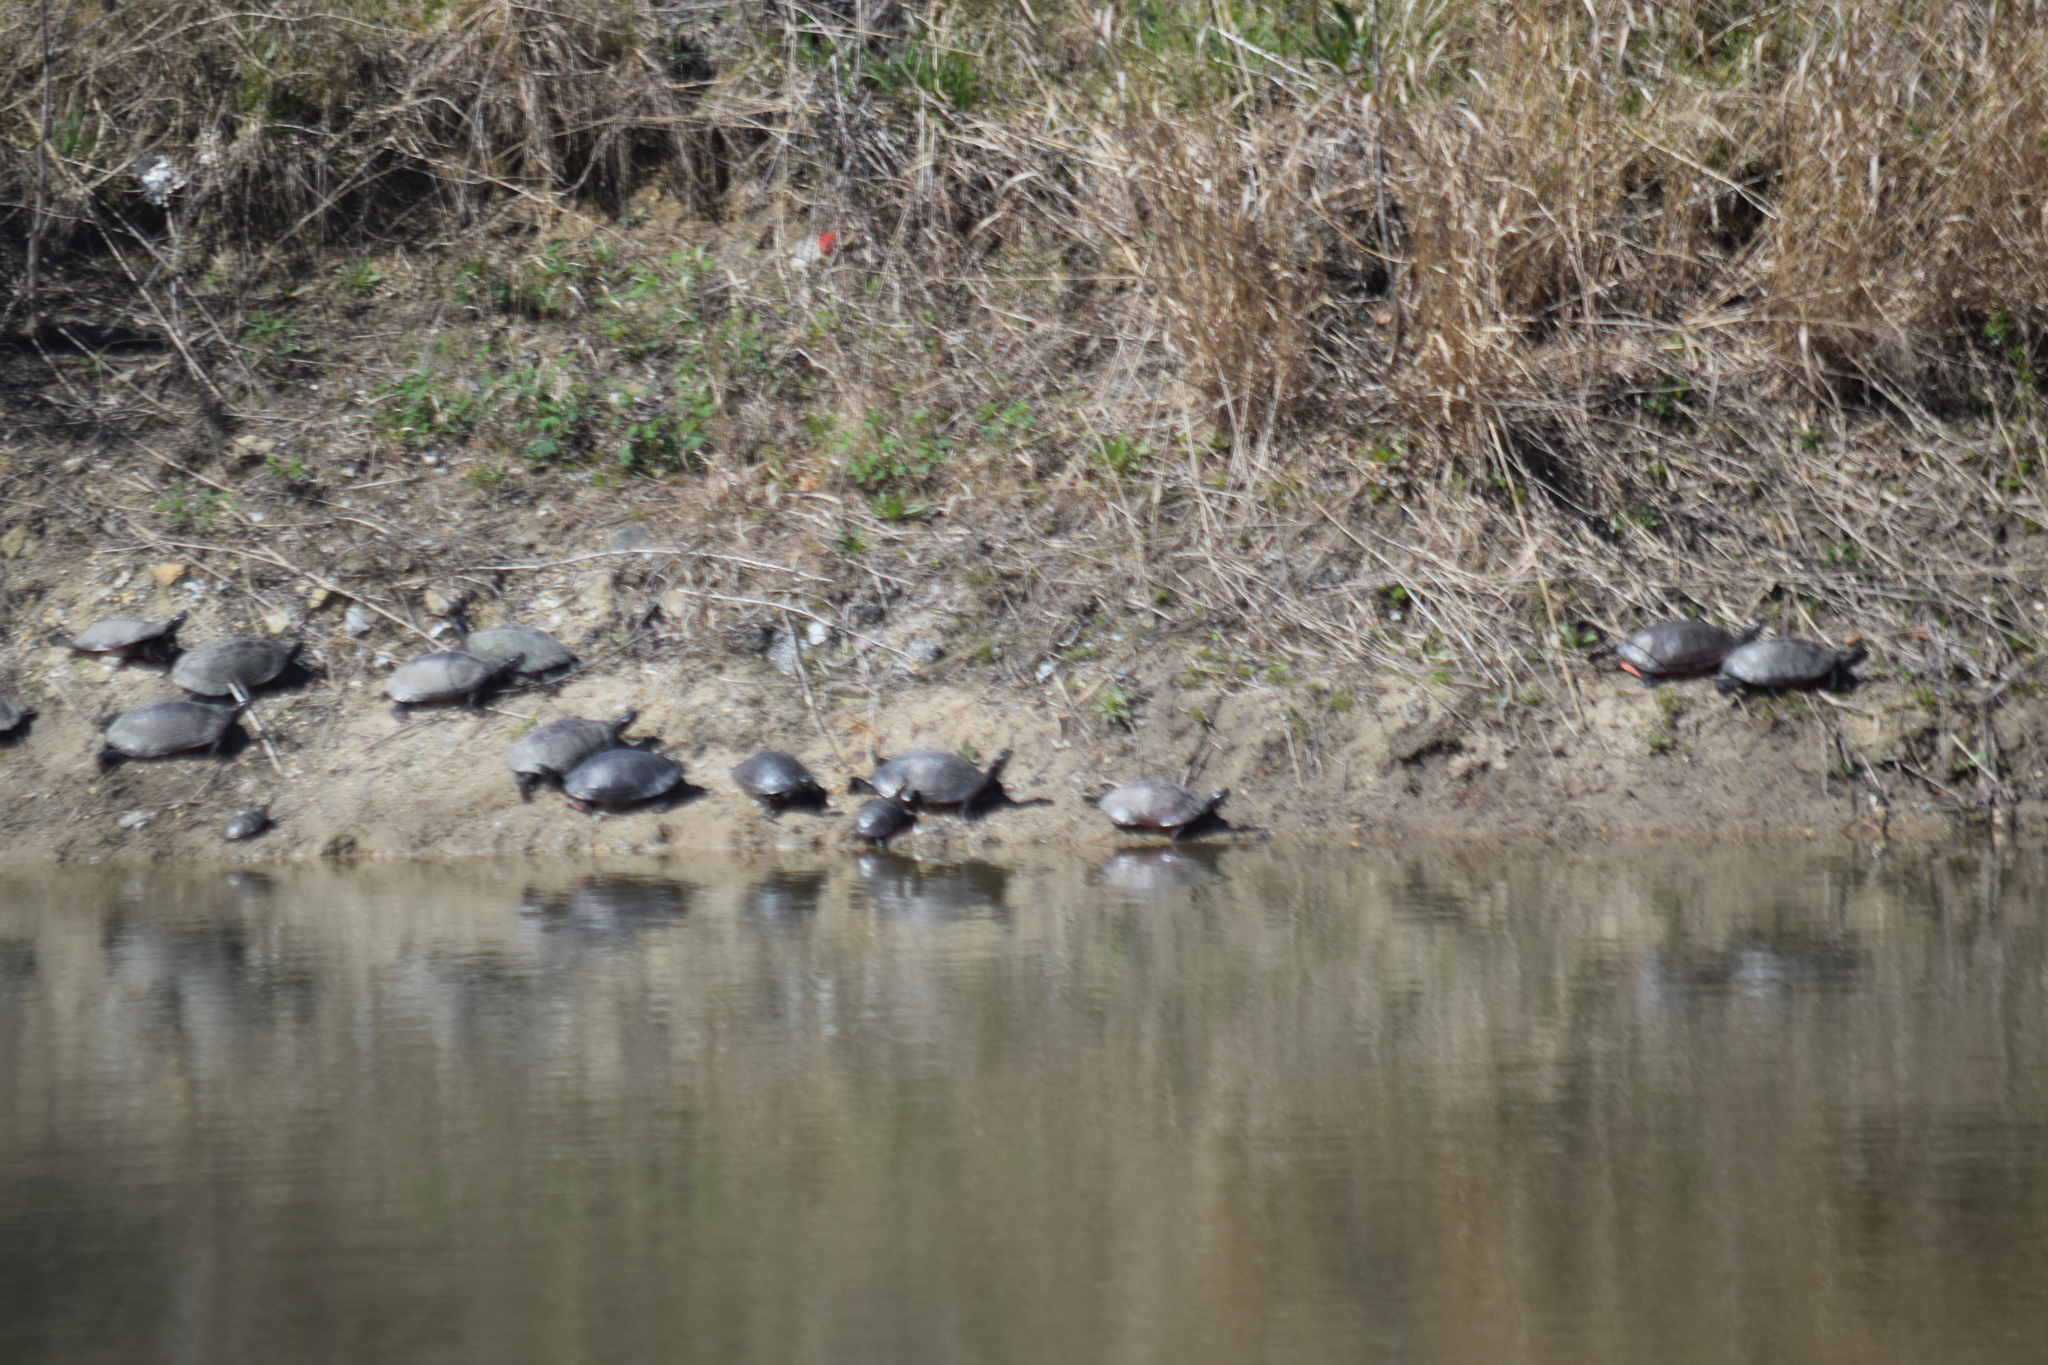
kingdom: Animalia
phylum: Chordata
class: Testudines
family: Emydidae
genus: Pseudemys
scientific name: Pseudemys rubriventris
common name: American red-bellied turtle
